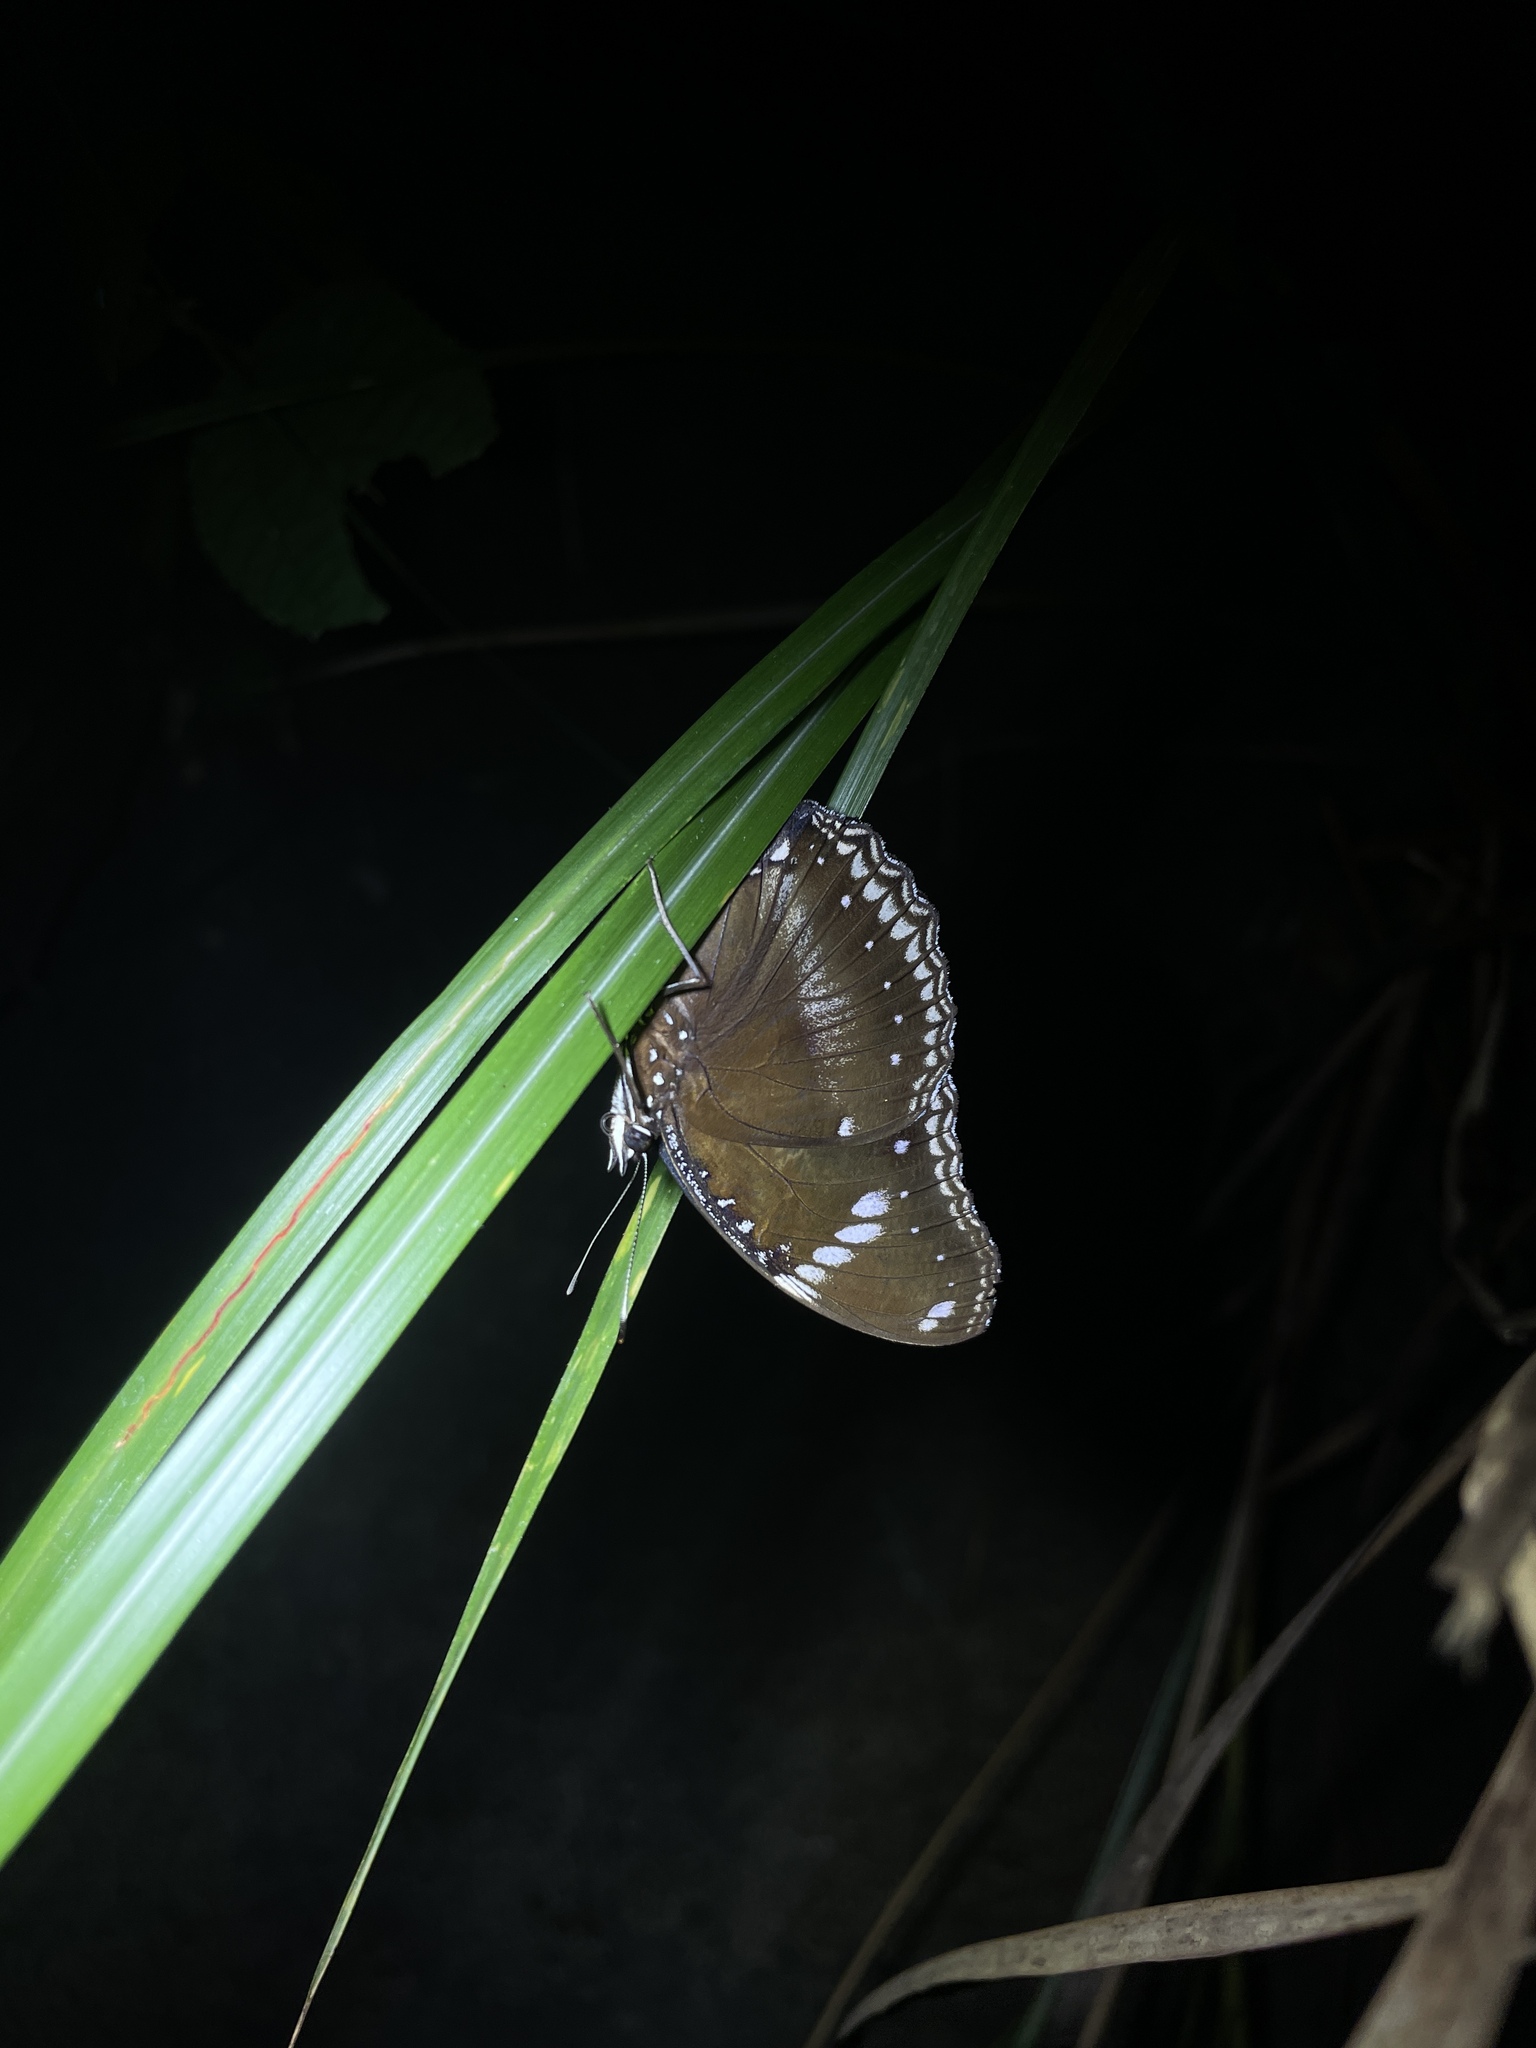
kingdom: Animalia
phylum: Arthropoda
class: Insecta
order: Lepidoptera
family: Nymphalidae
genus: Hypolimnas
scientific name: Hypolimnas bolina
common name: Great eggfly
